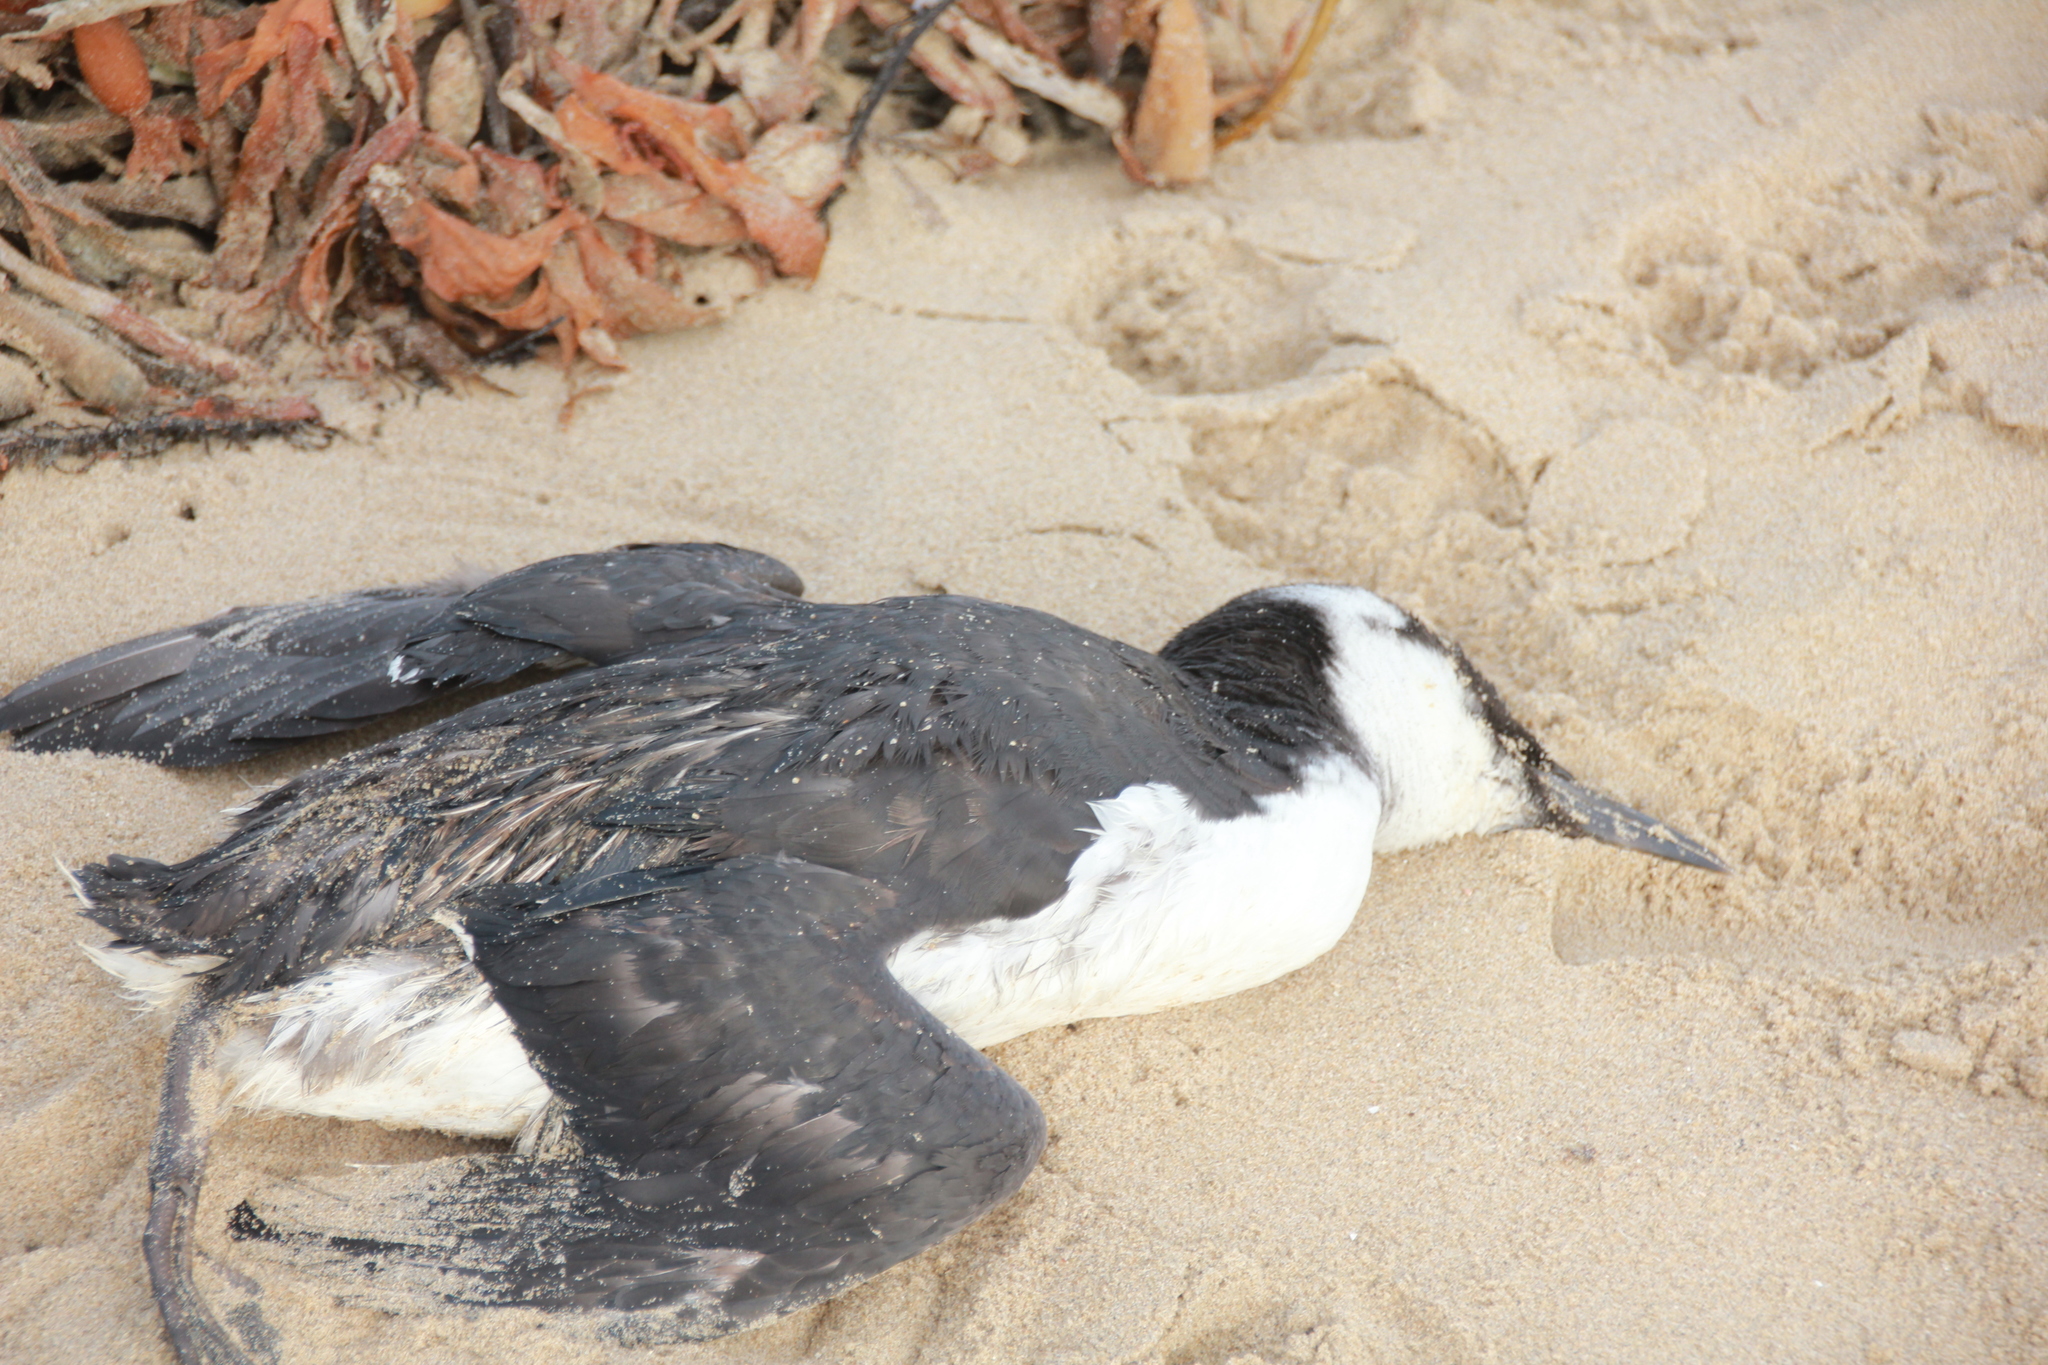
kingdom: Animalia
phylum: Chordata
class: Aves
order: Charadriiformes
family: Alcidae
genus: Uria
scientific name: Uria aalge
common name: Common murre
